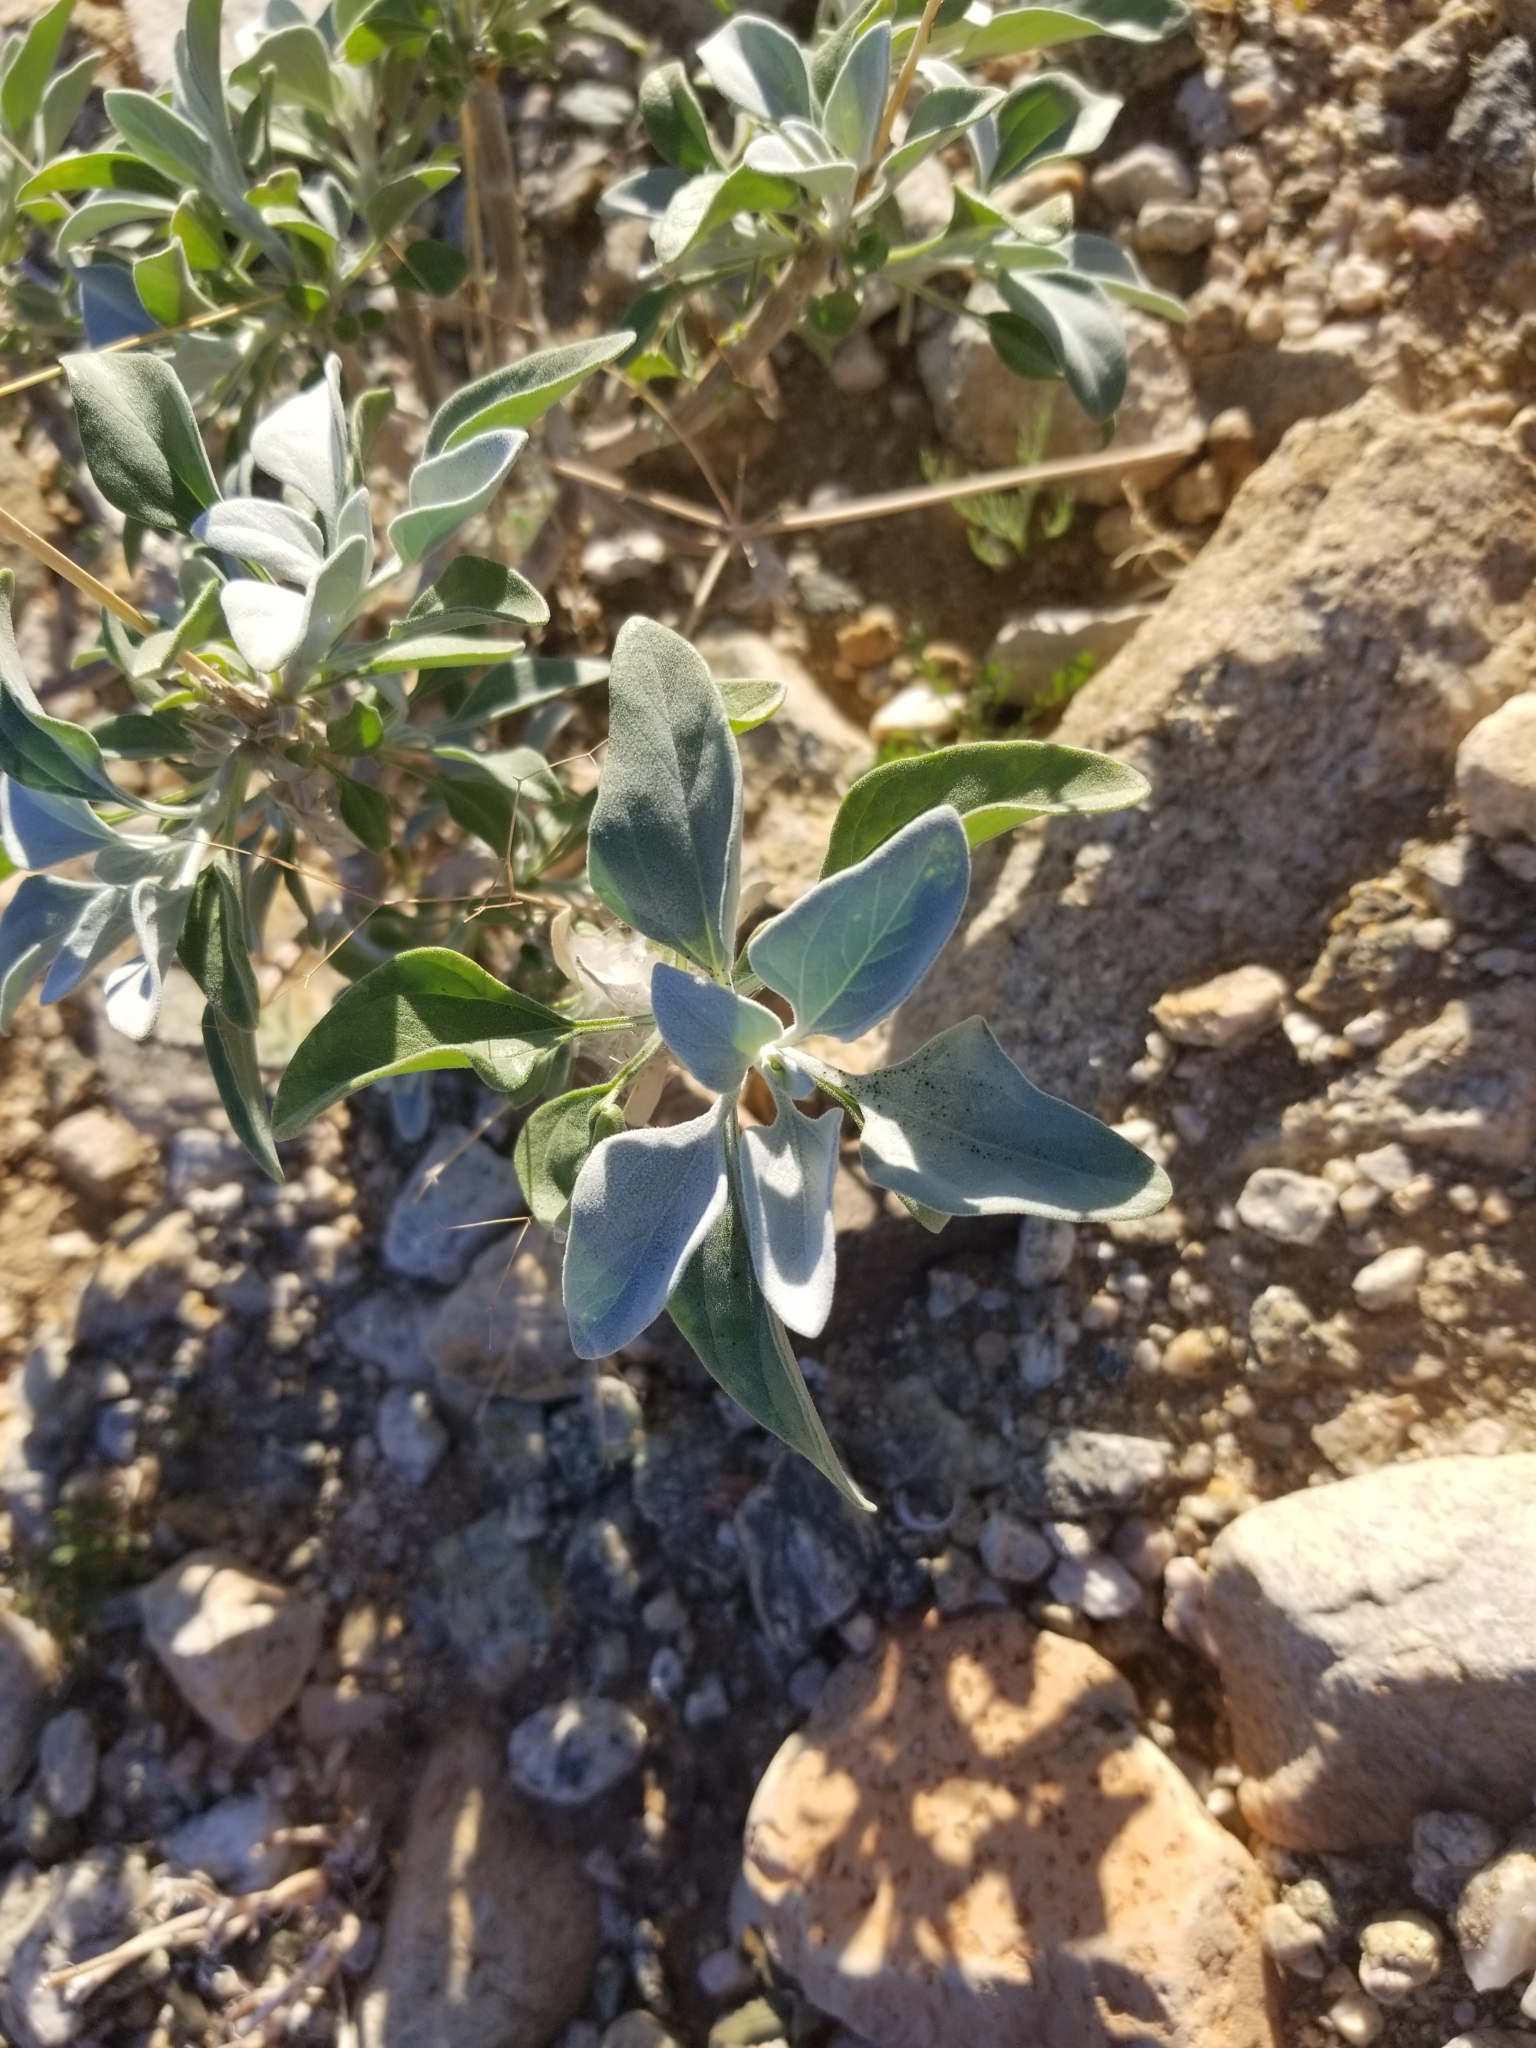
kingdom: Plantae
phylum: Tracheophyta
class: Magnoliopsida
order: Asterales
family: Asteraceae
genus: Encelia
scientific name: Encelia farinosa
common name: Brittlebush
